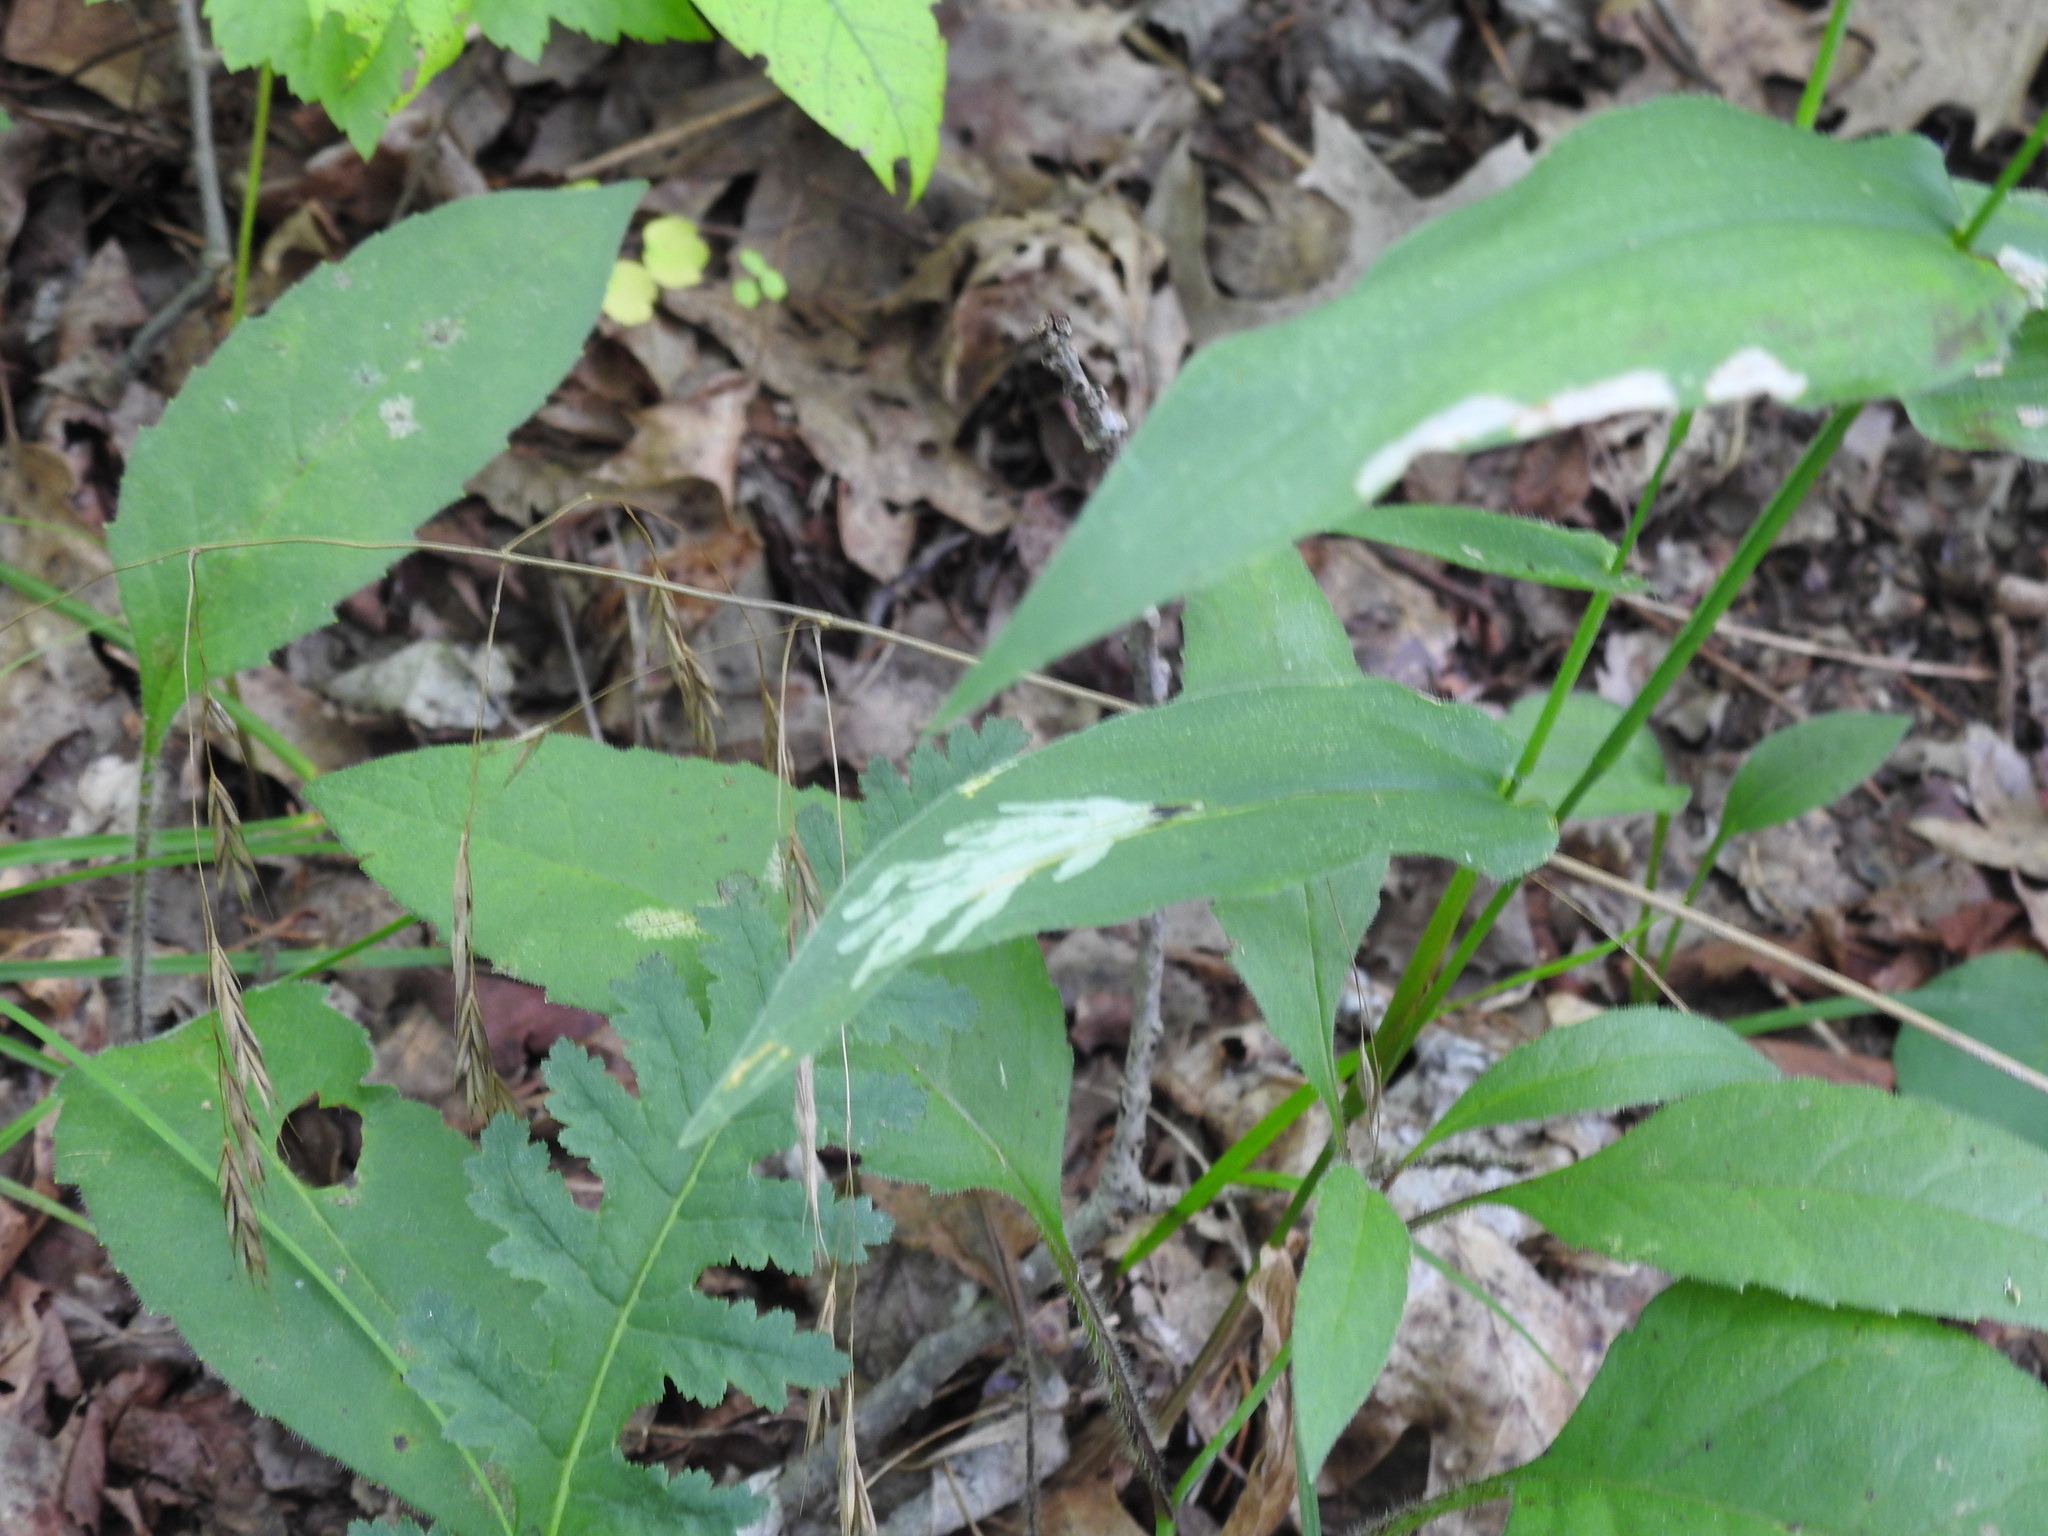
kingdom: Animalia
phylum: Arthropoda
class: Insecta
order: Diptera
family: Agromyzidae
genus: Cerodontha
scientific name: Cerodontha angulata
